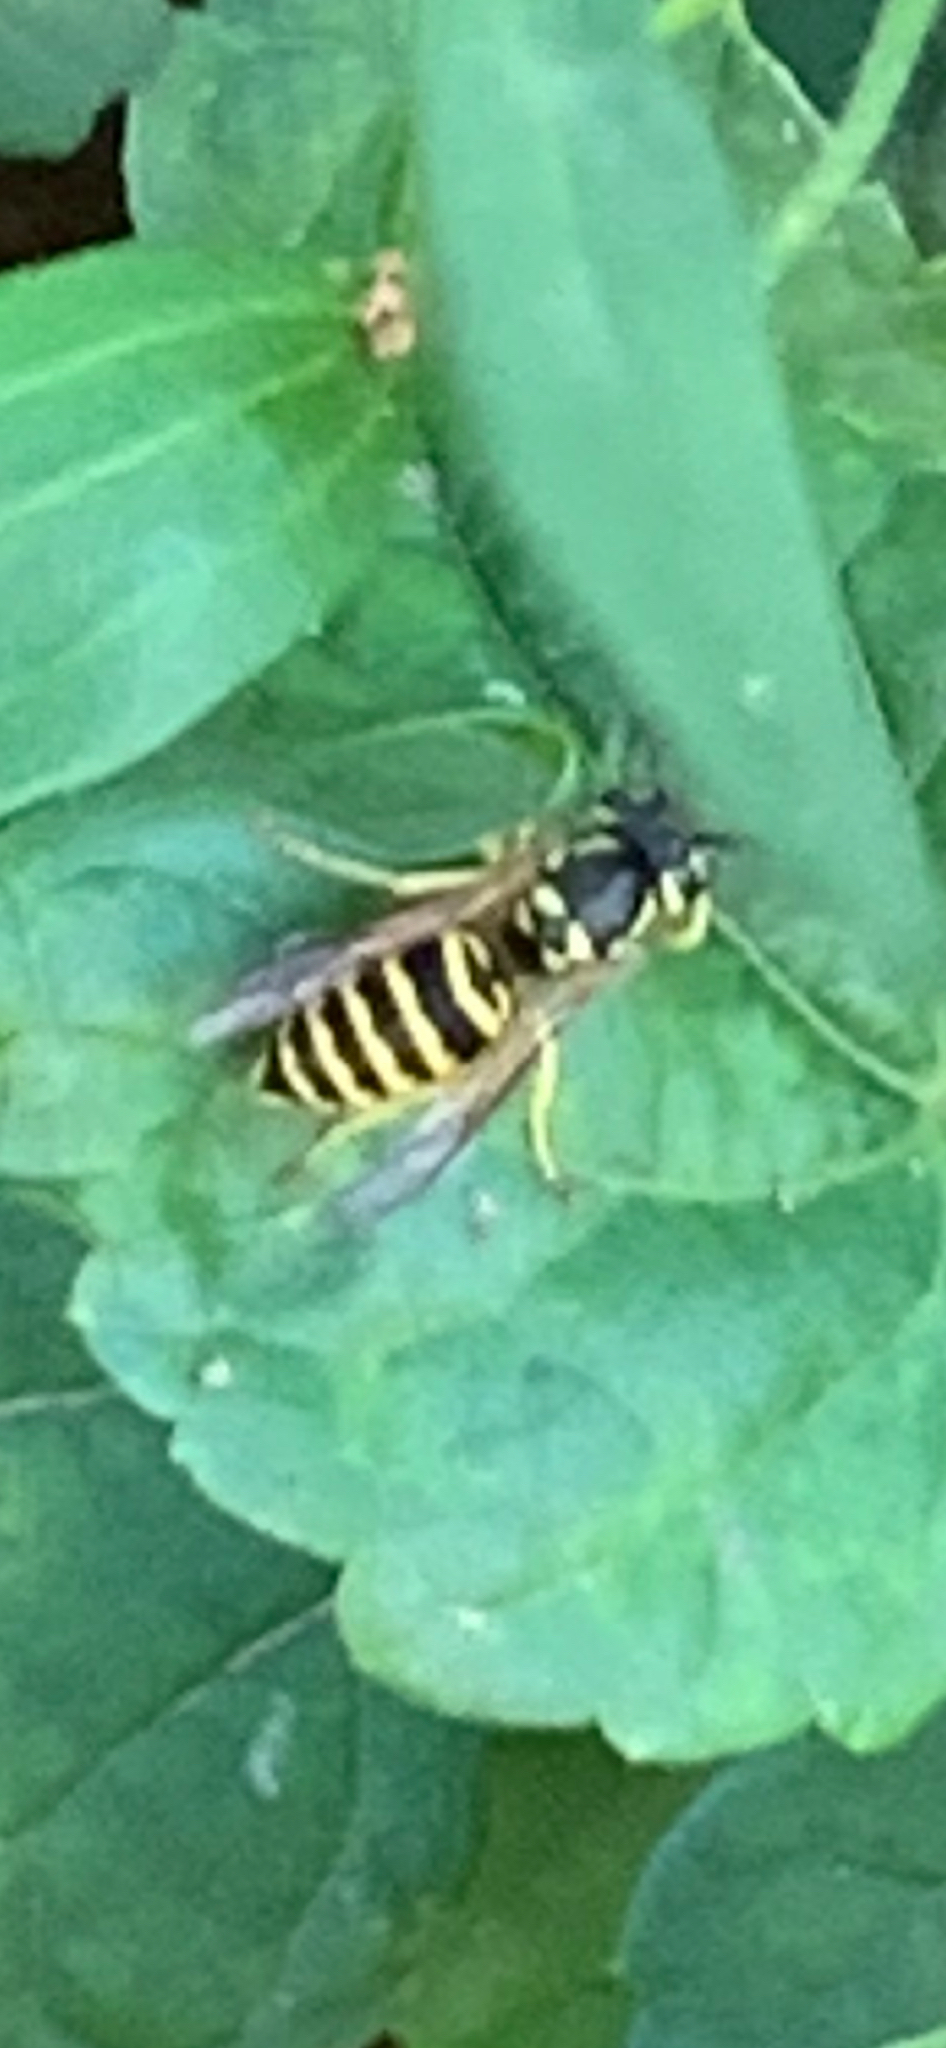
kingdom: Animalia
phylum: Arthropoda
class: Insecta
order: Hymenoptera
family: Vespidae
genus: Vespula
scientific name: Vespula maculifrons
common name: Eastern yellowjacket
